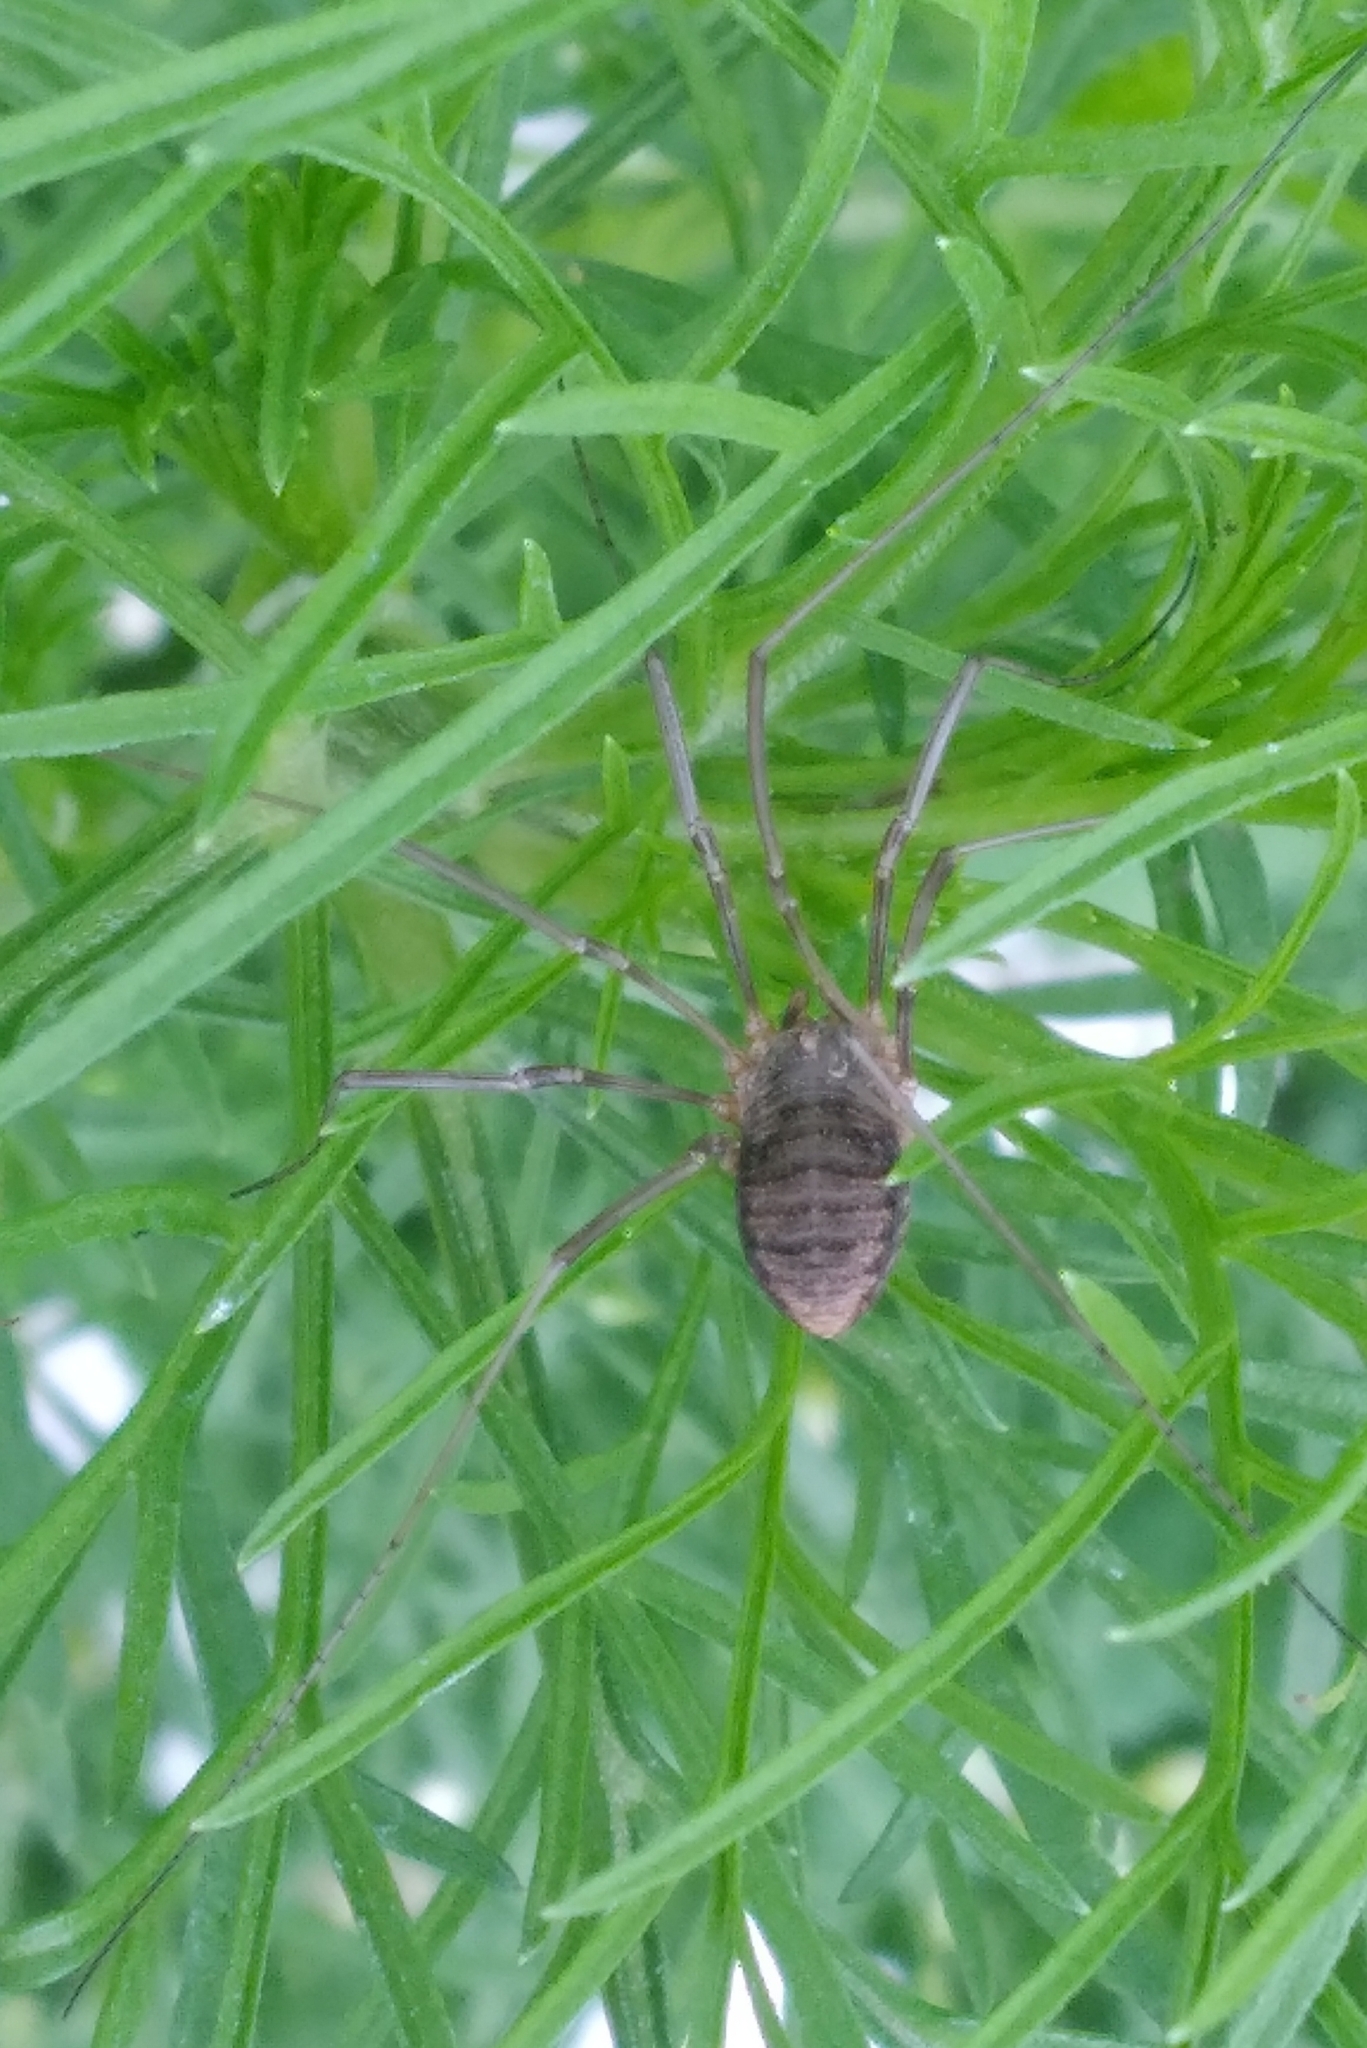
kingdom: Animalia
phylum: Arthropoda
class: Arachnida
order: Opiliones
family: Phalangiidae
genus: Phalangium
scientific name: Phalangium opilio
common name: Daddy longleg
